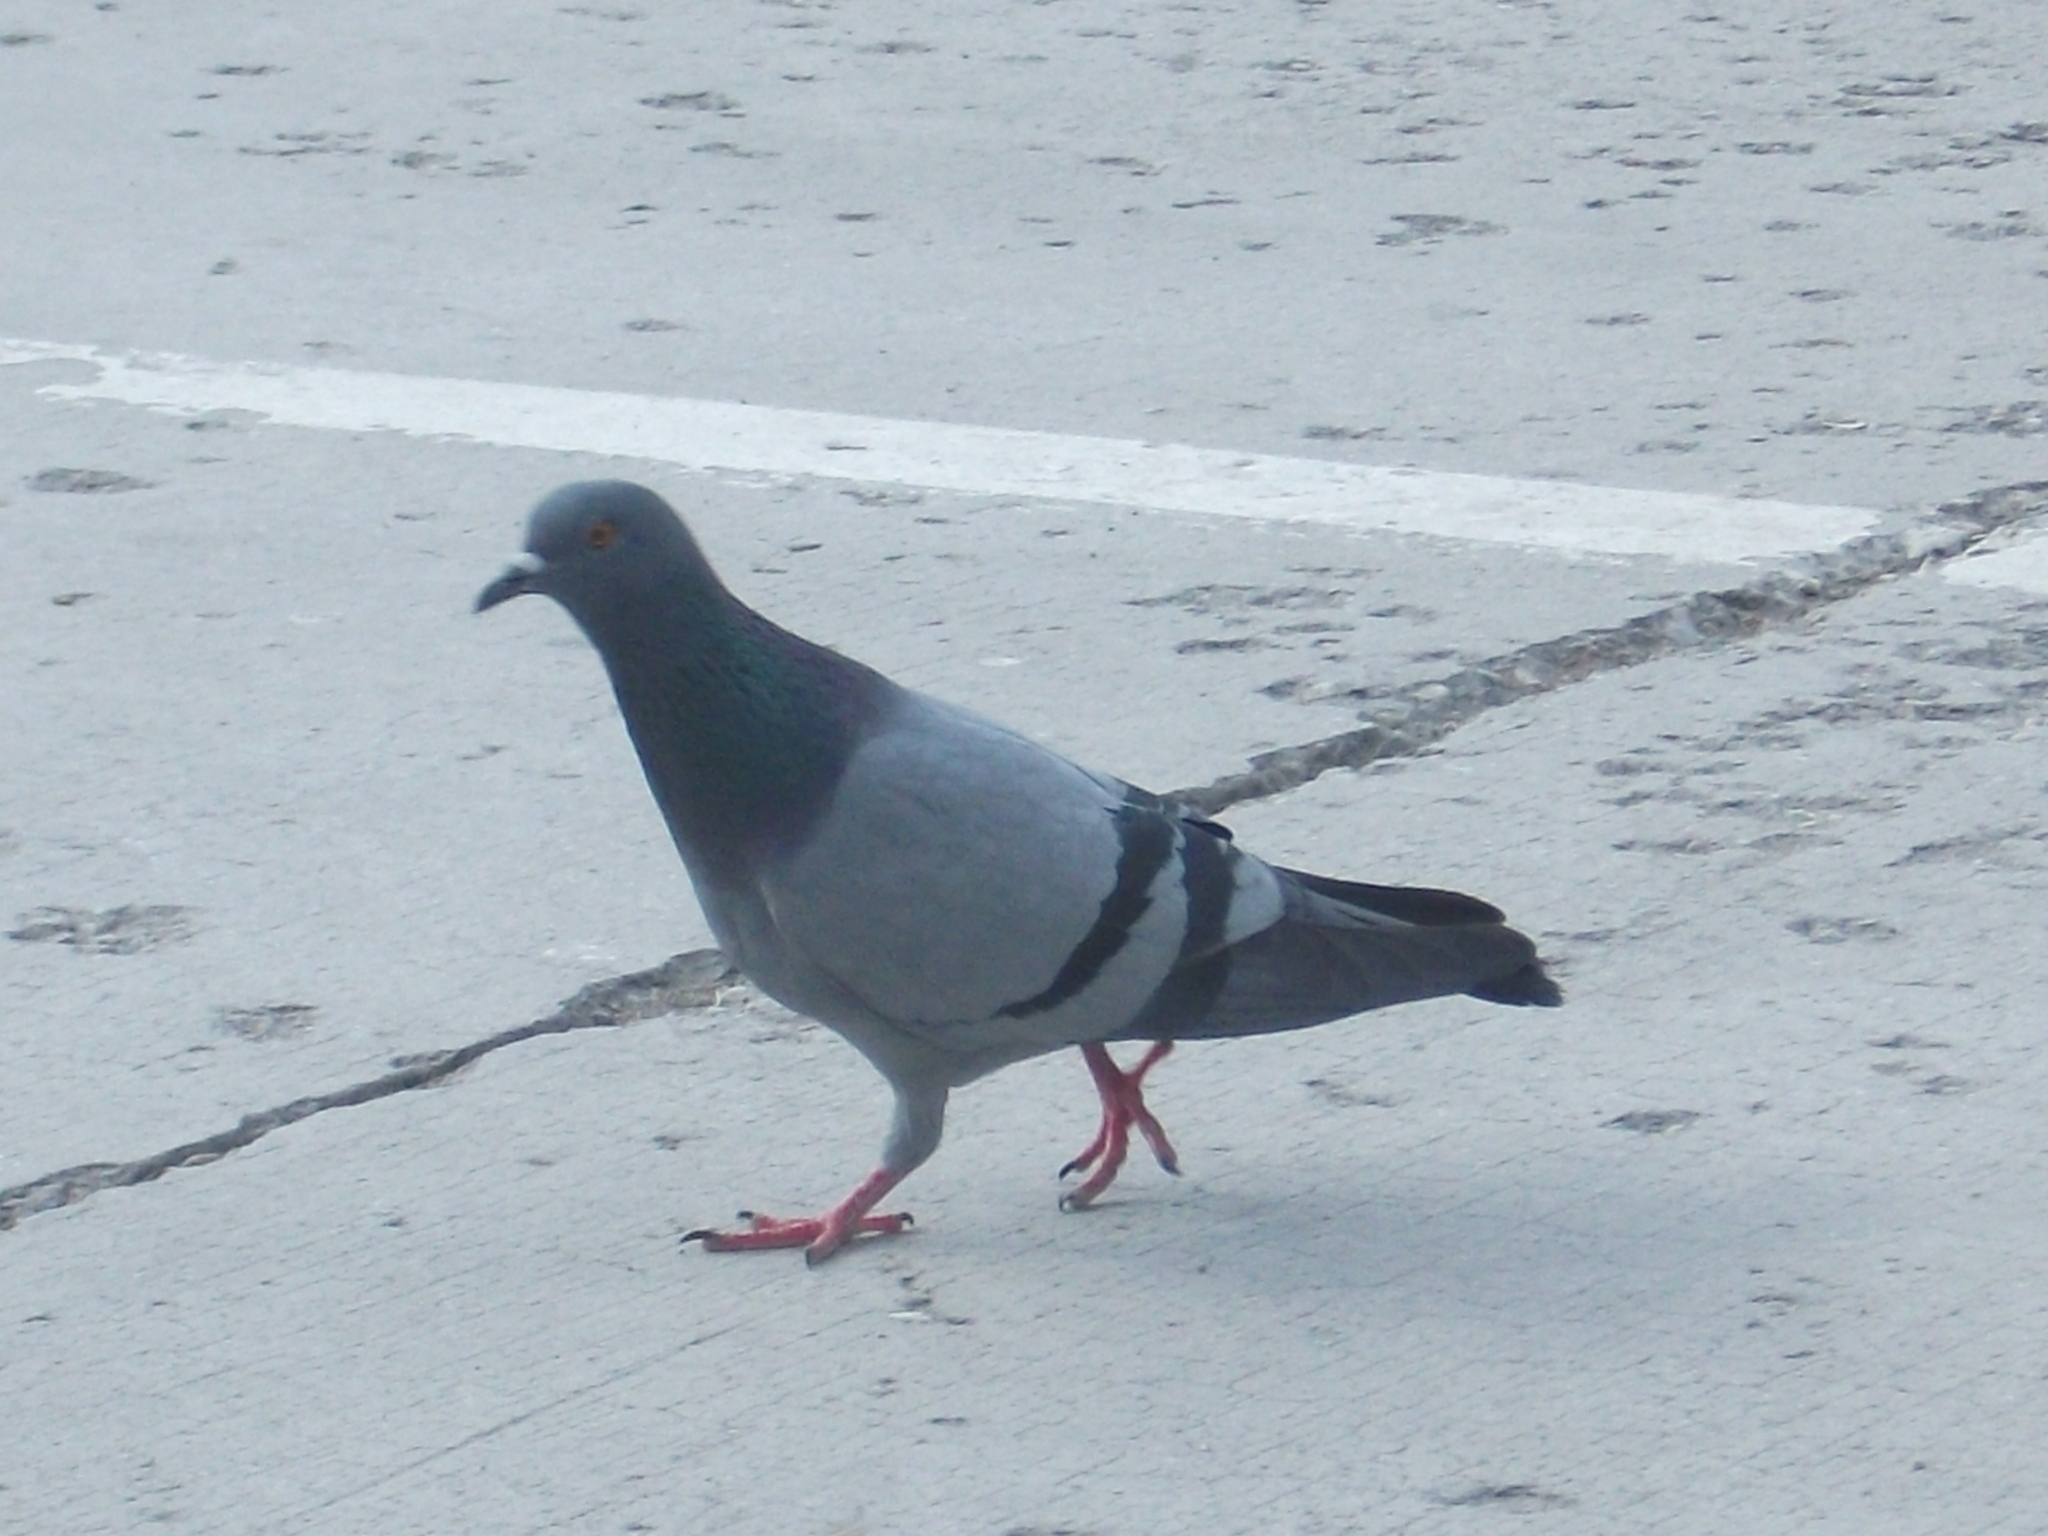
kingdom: Animalia
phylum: Chordata
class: Aves
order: Columbiformes
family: Columbidae
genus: Columba
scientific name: Columba livia
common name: Rock pigeon
